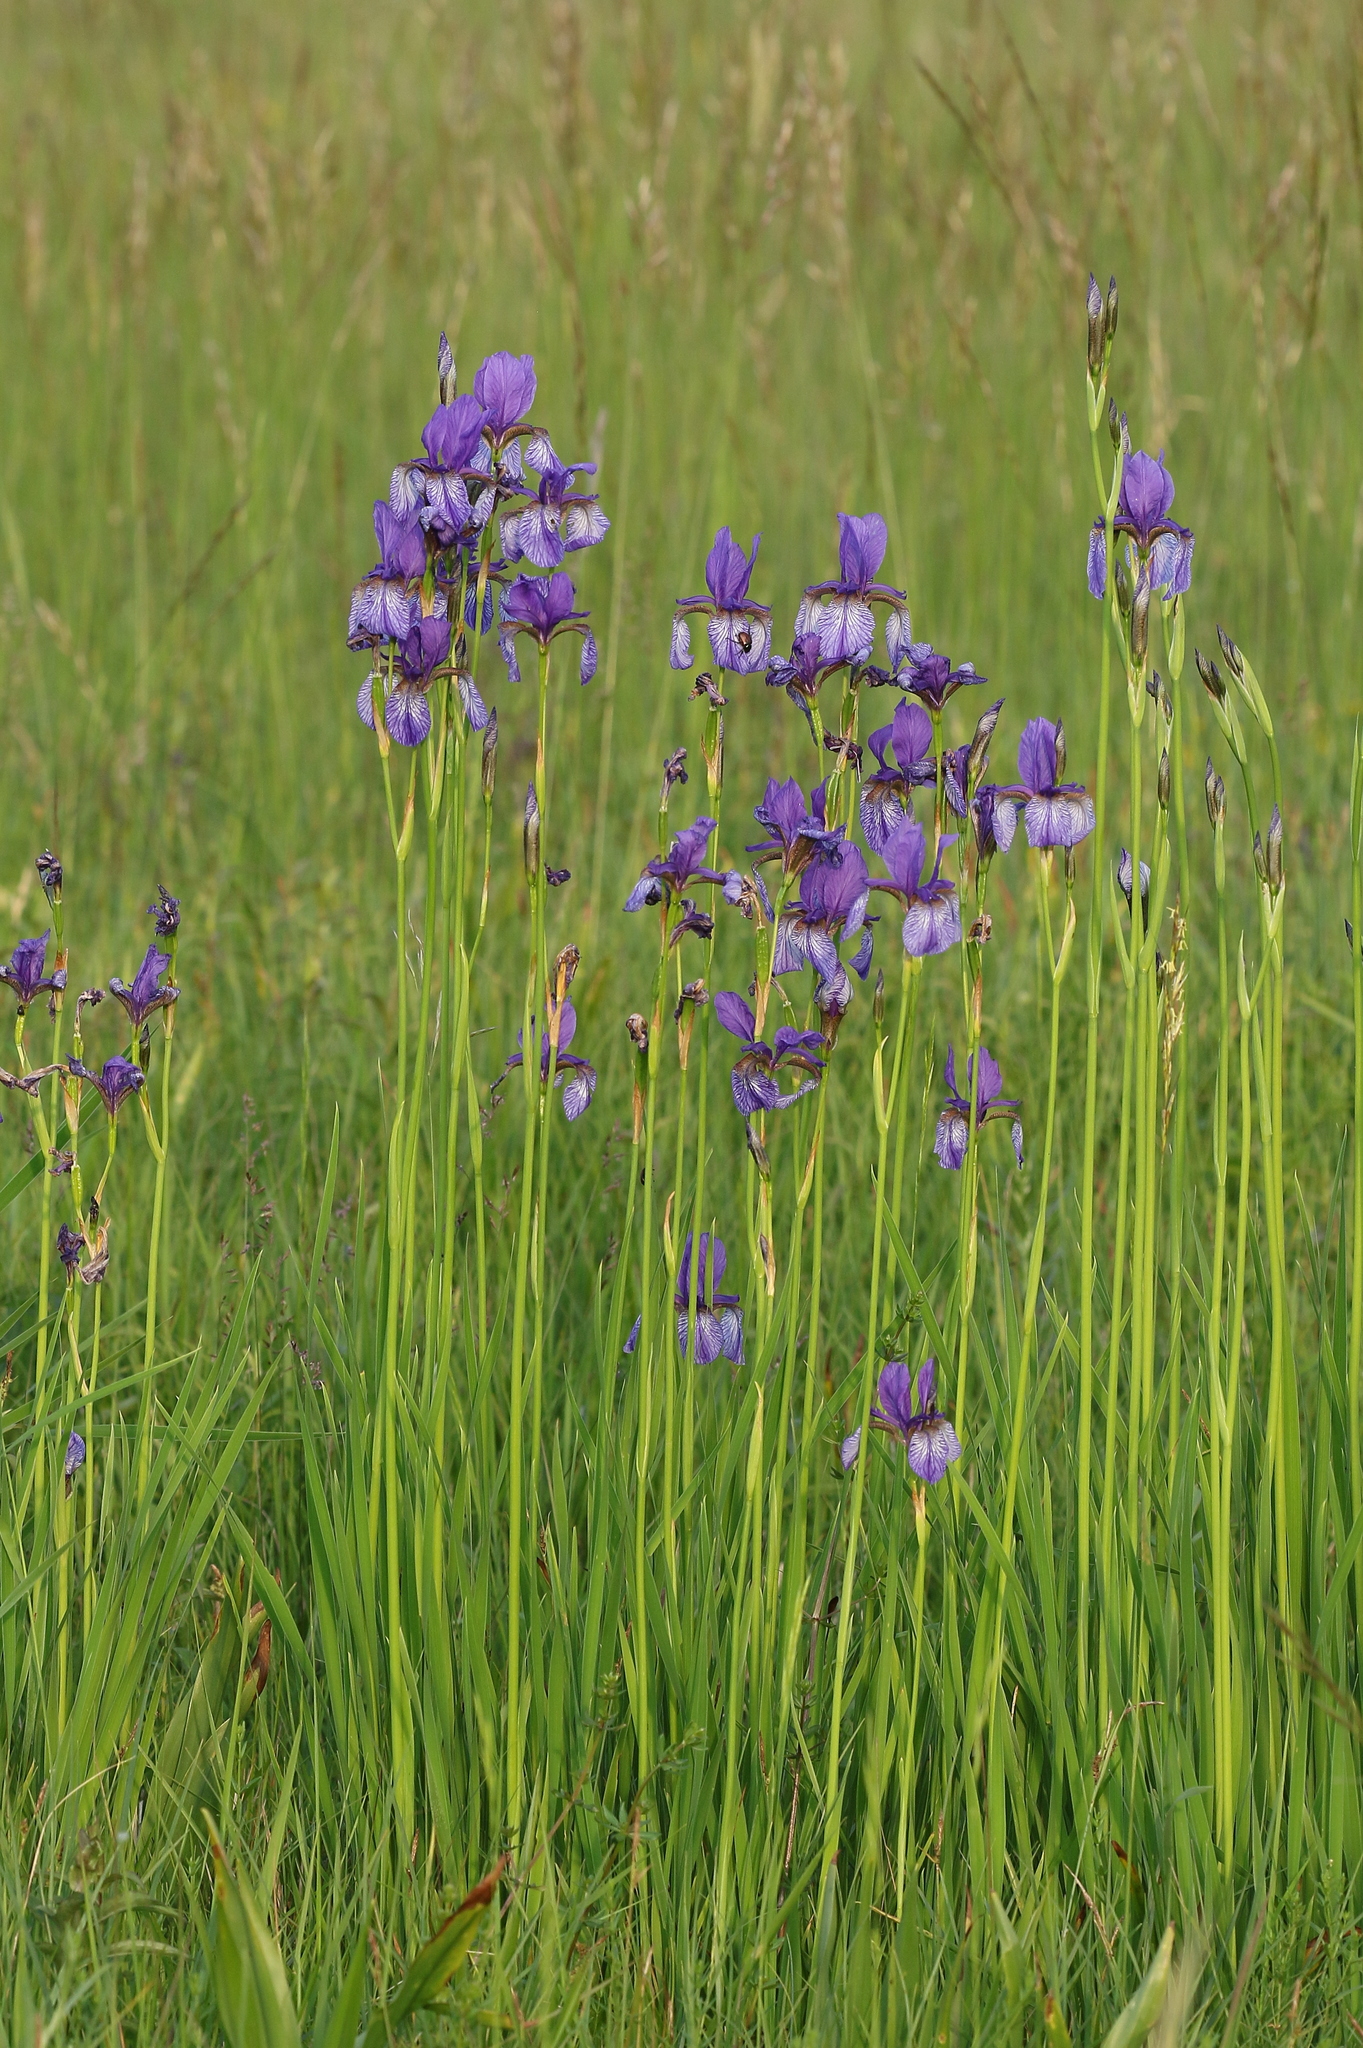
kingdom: Plantae
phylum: Tracheophyta
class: Liliopsida
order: Asparagales
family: Iridaceae
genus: Iris
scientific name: Iris sibirica
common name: Siberian iris
